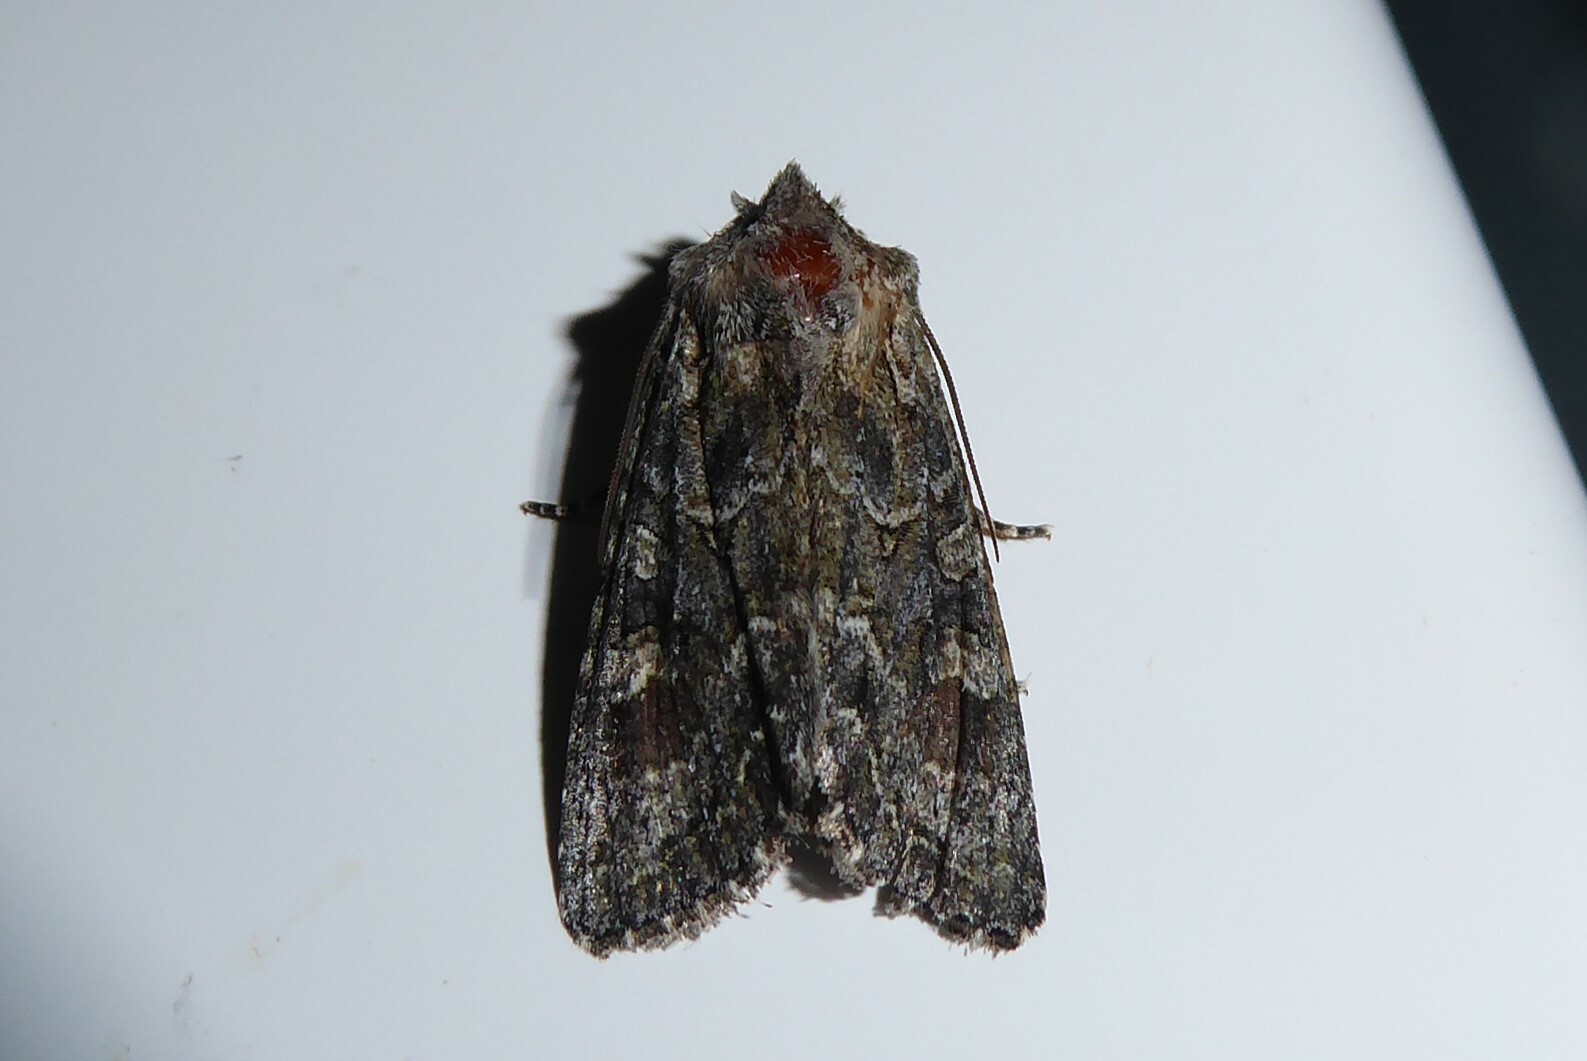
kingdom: Animalia
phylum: Arthropoda
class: Insecta
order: Lepidoptera
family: Noctuidae
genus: Ichneutica
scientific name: Ichneutica mutans
